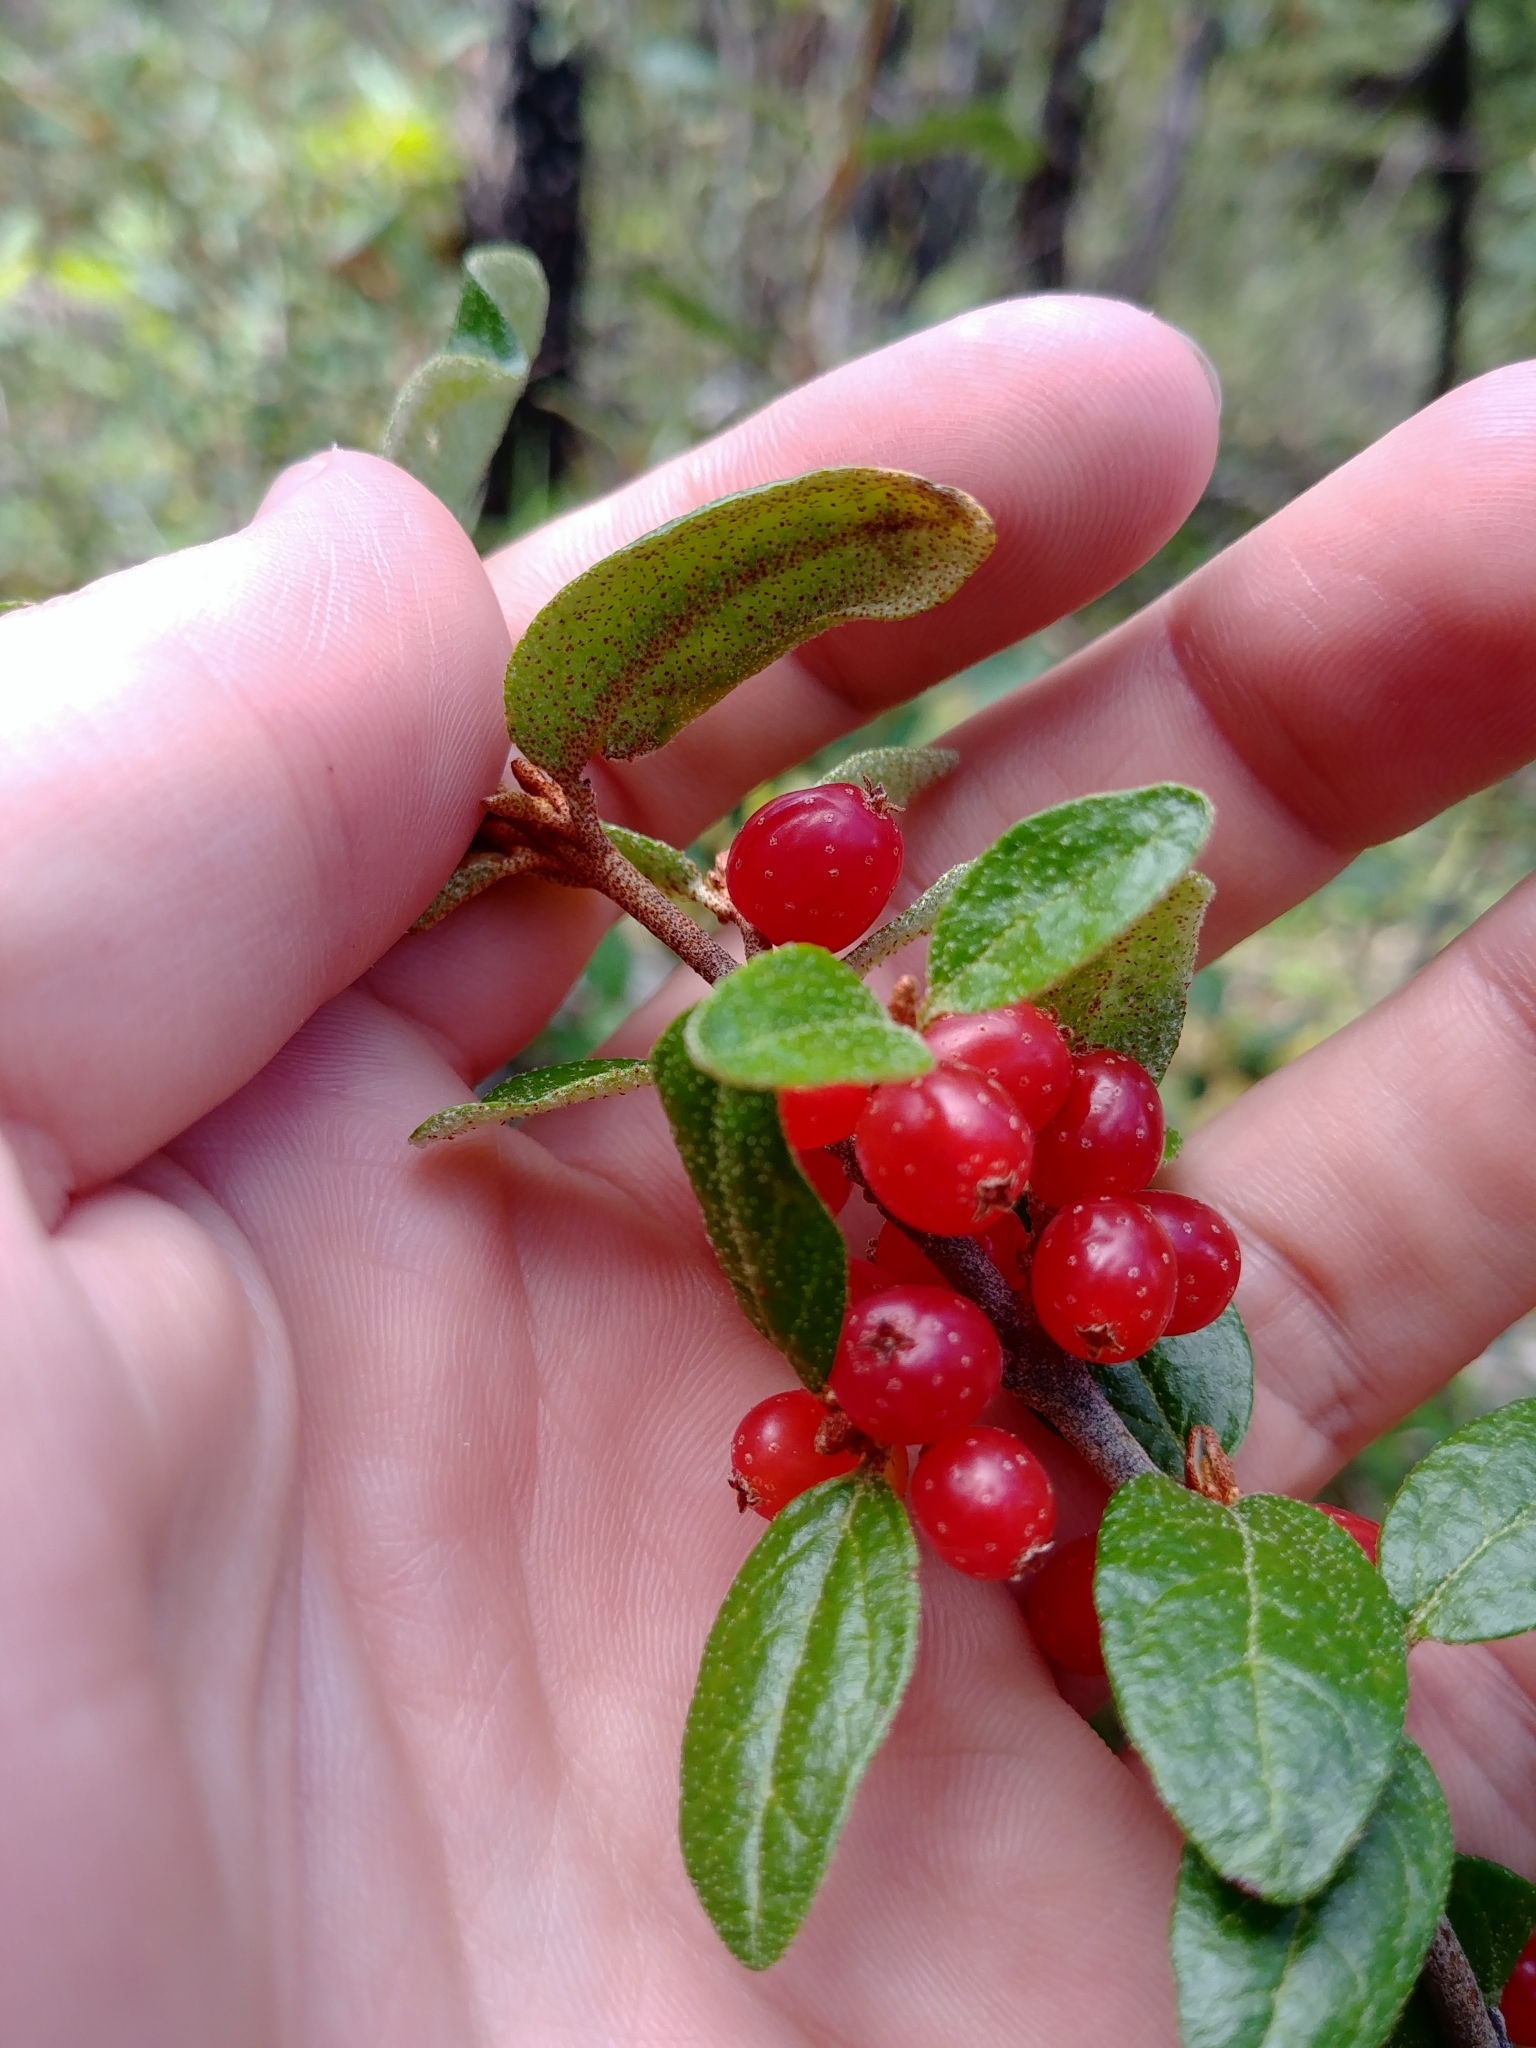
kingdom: Plantae
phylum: Tracheophyta
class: Magnoliopsida
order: Rosales
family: Elaeagnaceae
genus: Shepherdia
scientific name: Shepherdia canadensis
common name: Soapberry
